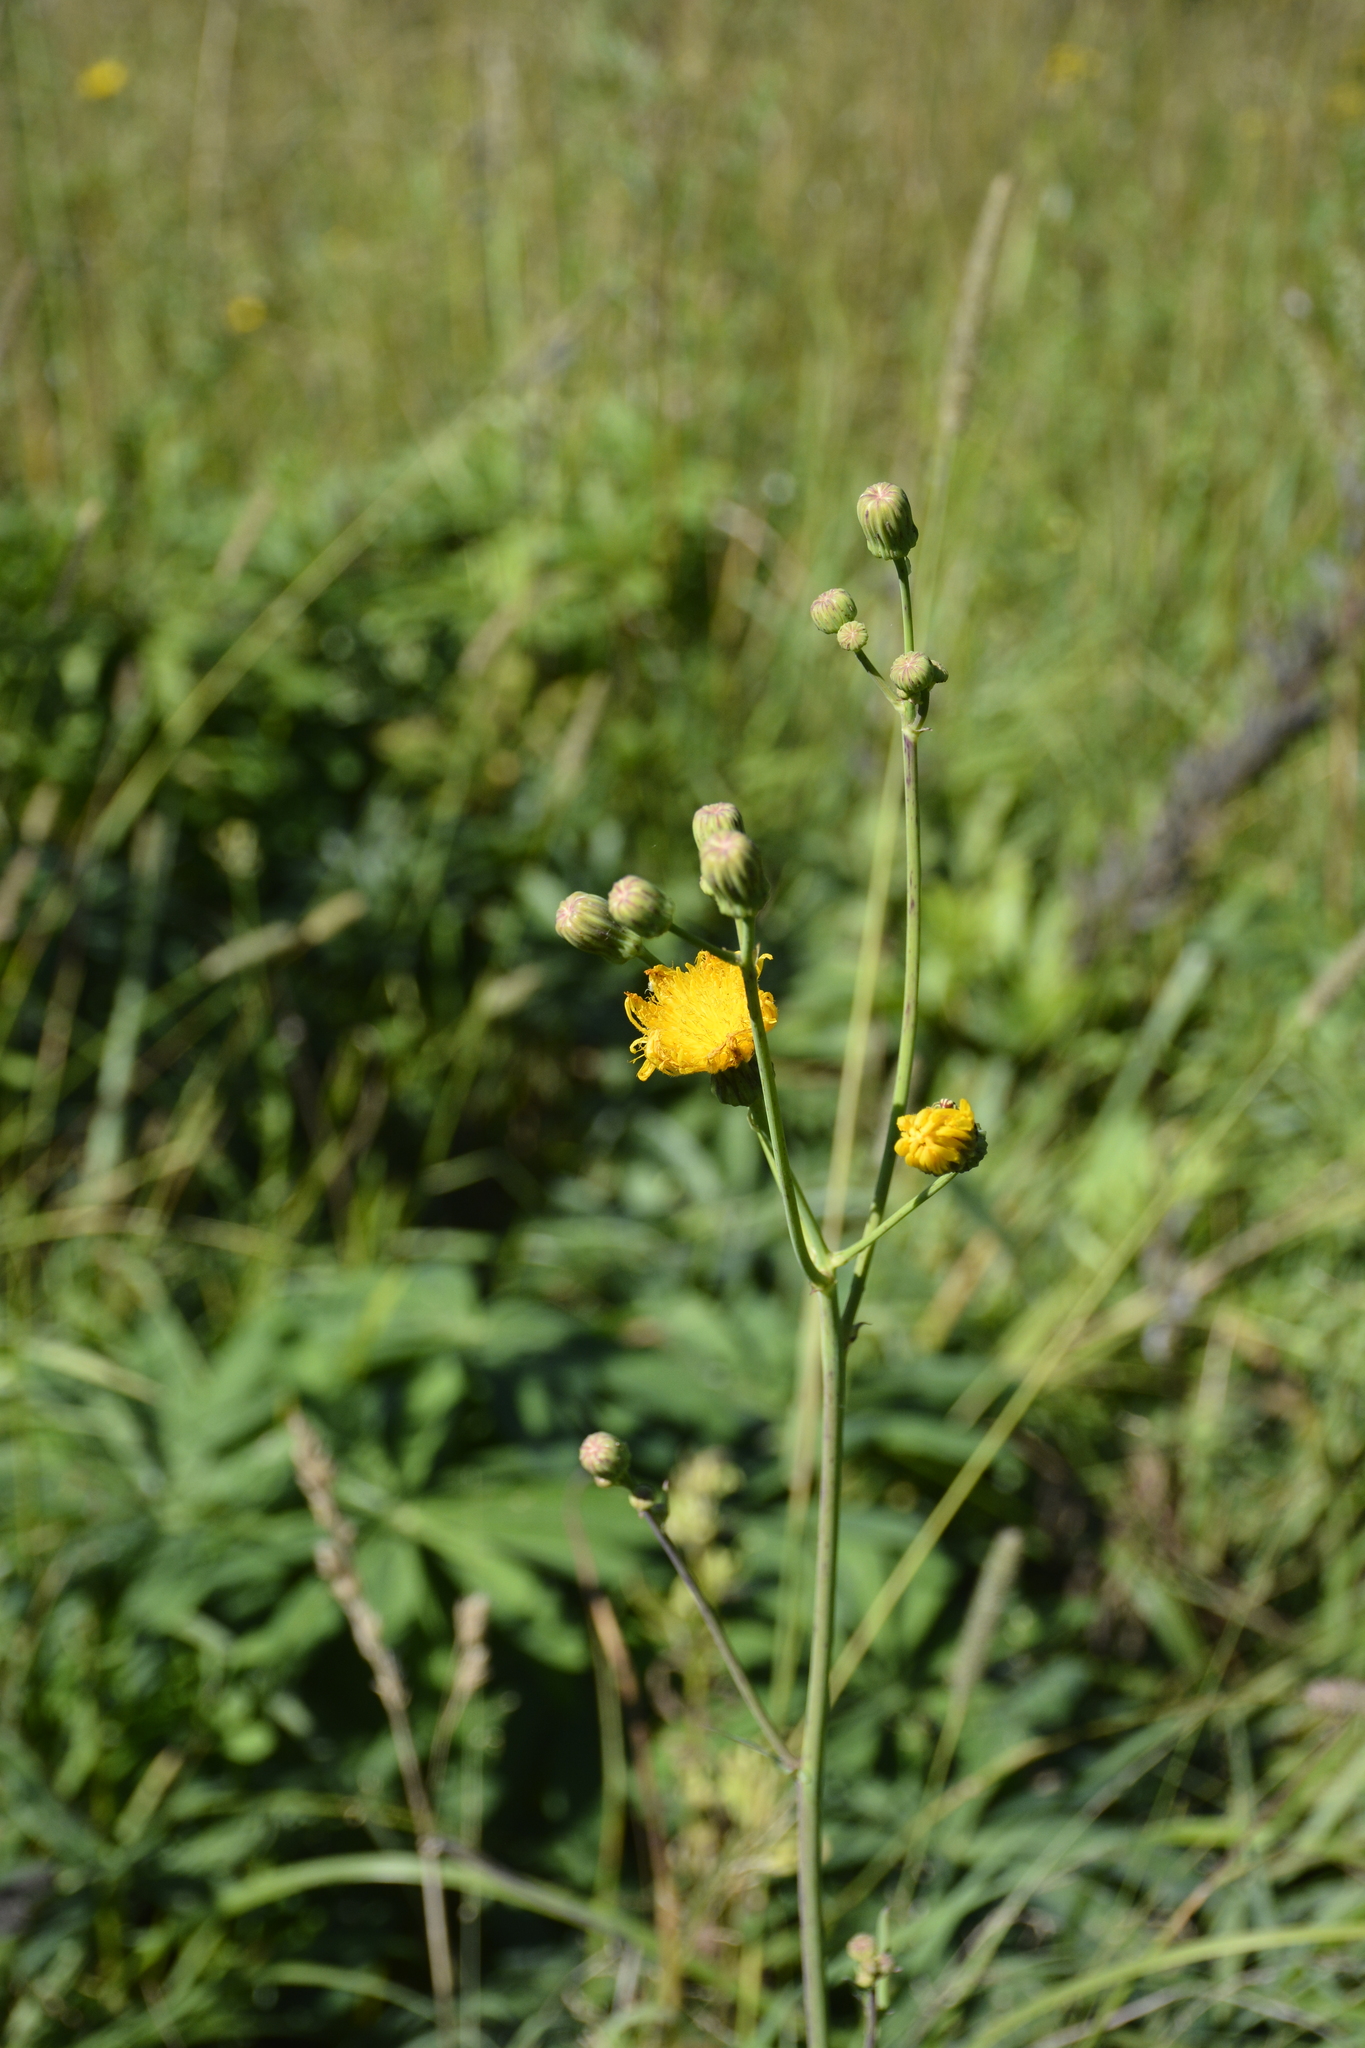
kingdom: Plantae
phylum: Tracheophyta
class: Magnoliopsida
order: Asterales
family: Asteraceae
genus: Sonchus
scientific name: Sonchus arvensis
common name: Perennial sow-thistle
